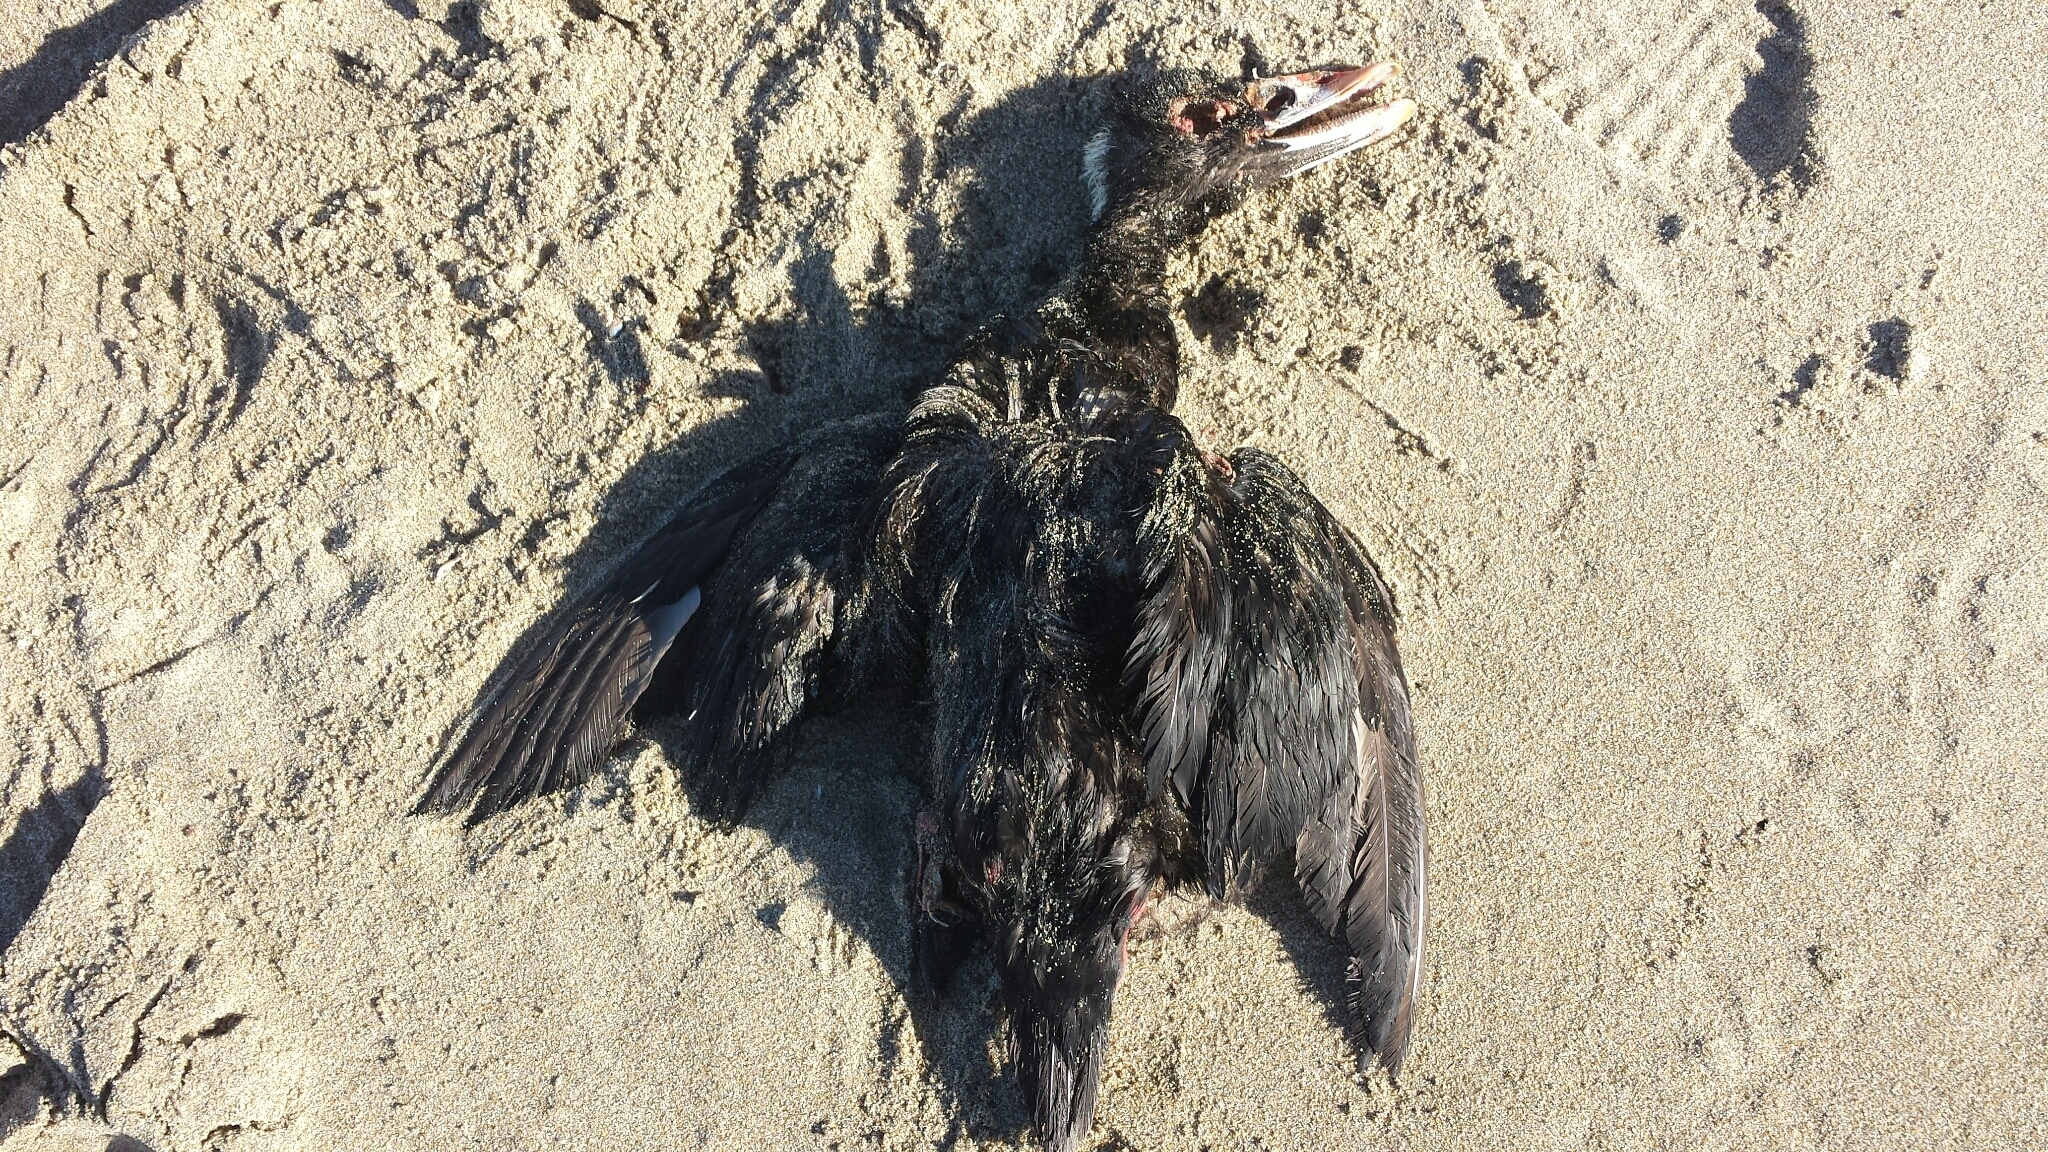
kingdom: Animalia
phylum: Chordata
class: Aves
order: Anseriformes
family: Anatidae
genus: Melanitta
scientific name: Melanitta perspicillata
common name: Surf scoter
